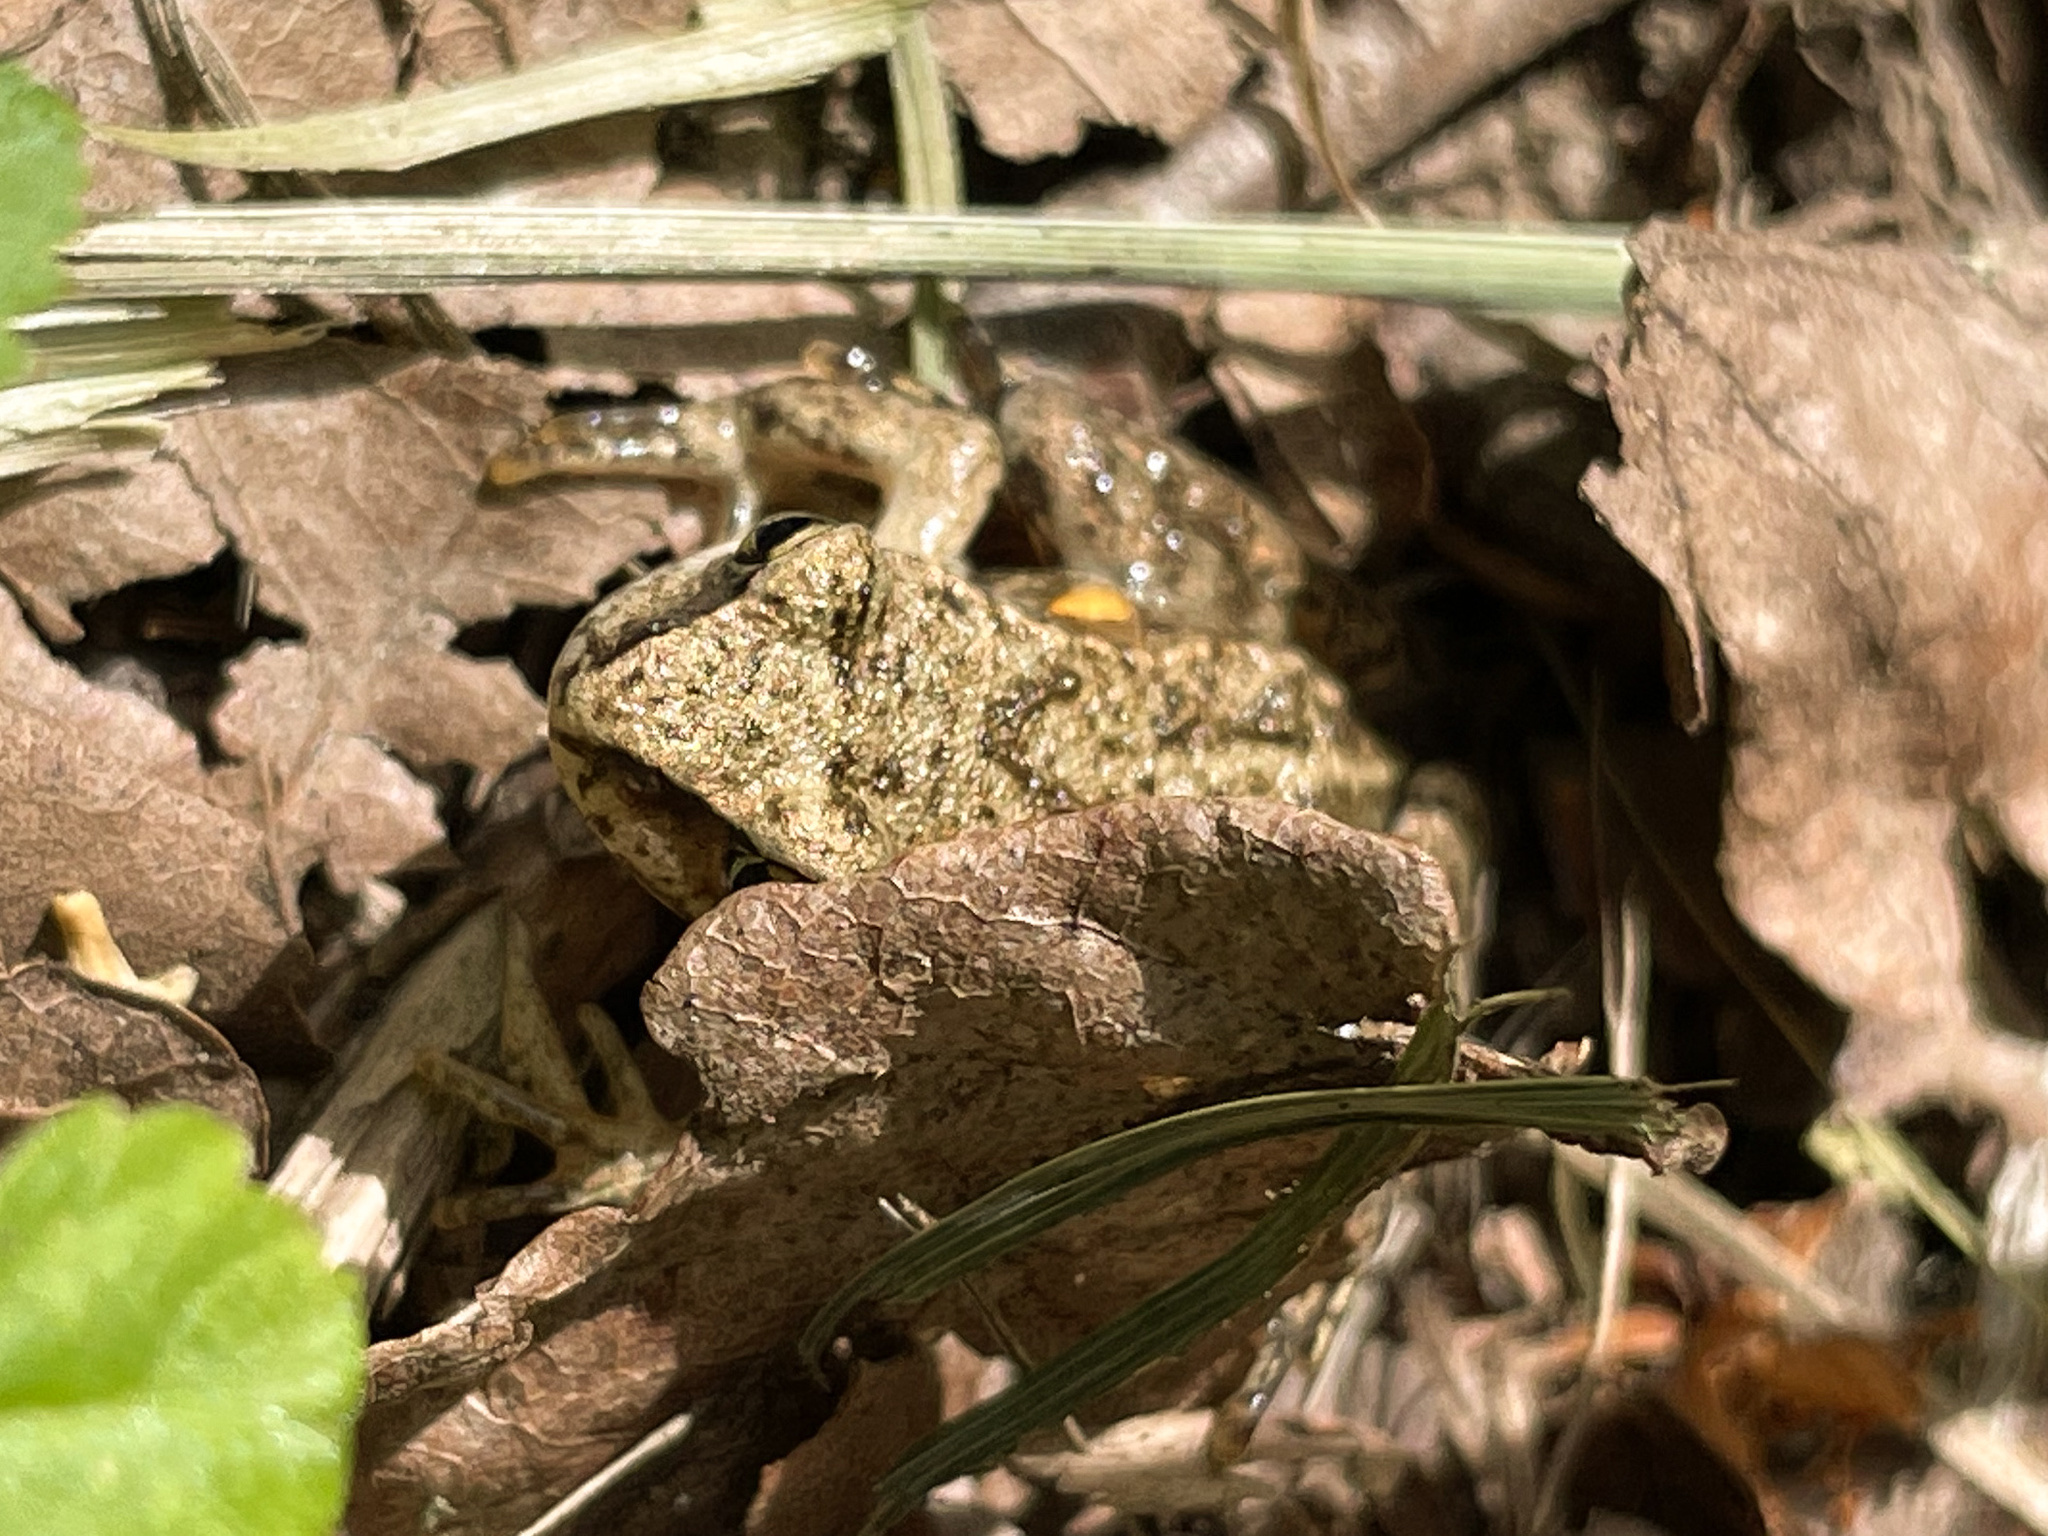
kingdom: Animalia
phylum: Chordata
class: Amphibia
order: Anura
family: Ranidae
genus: Rana
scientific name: Rana temporaria
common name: Common frog
